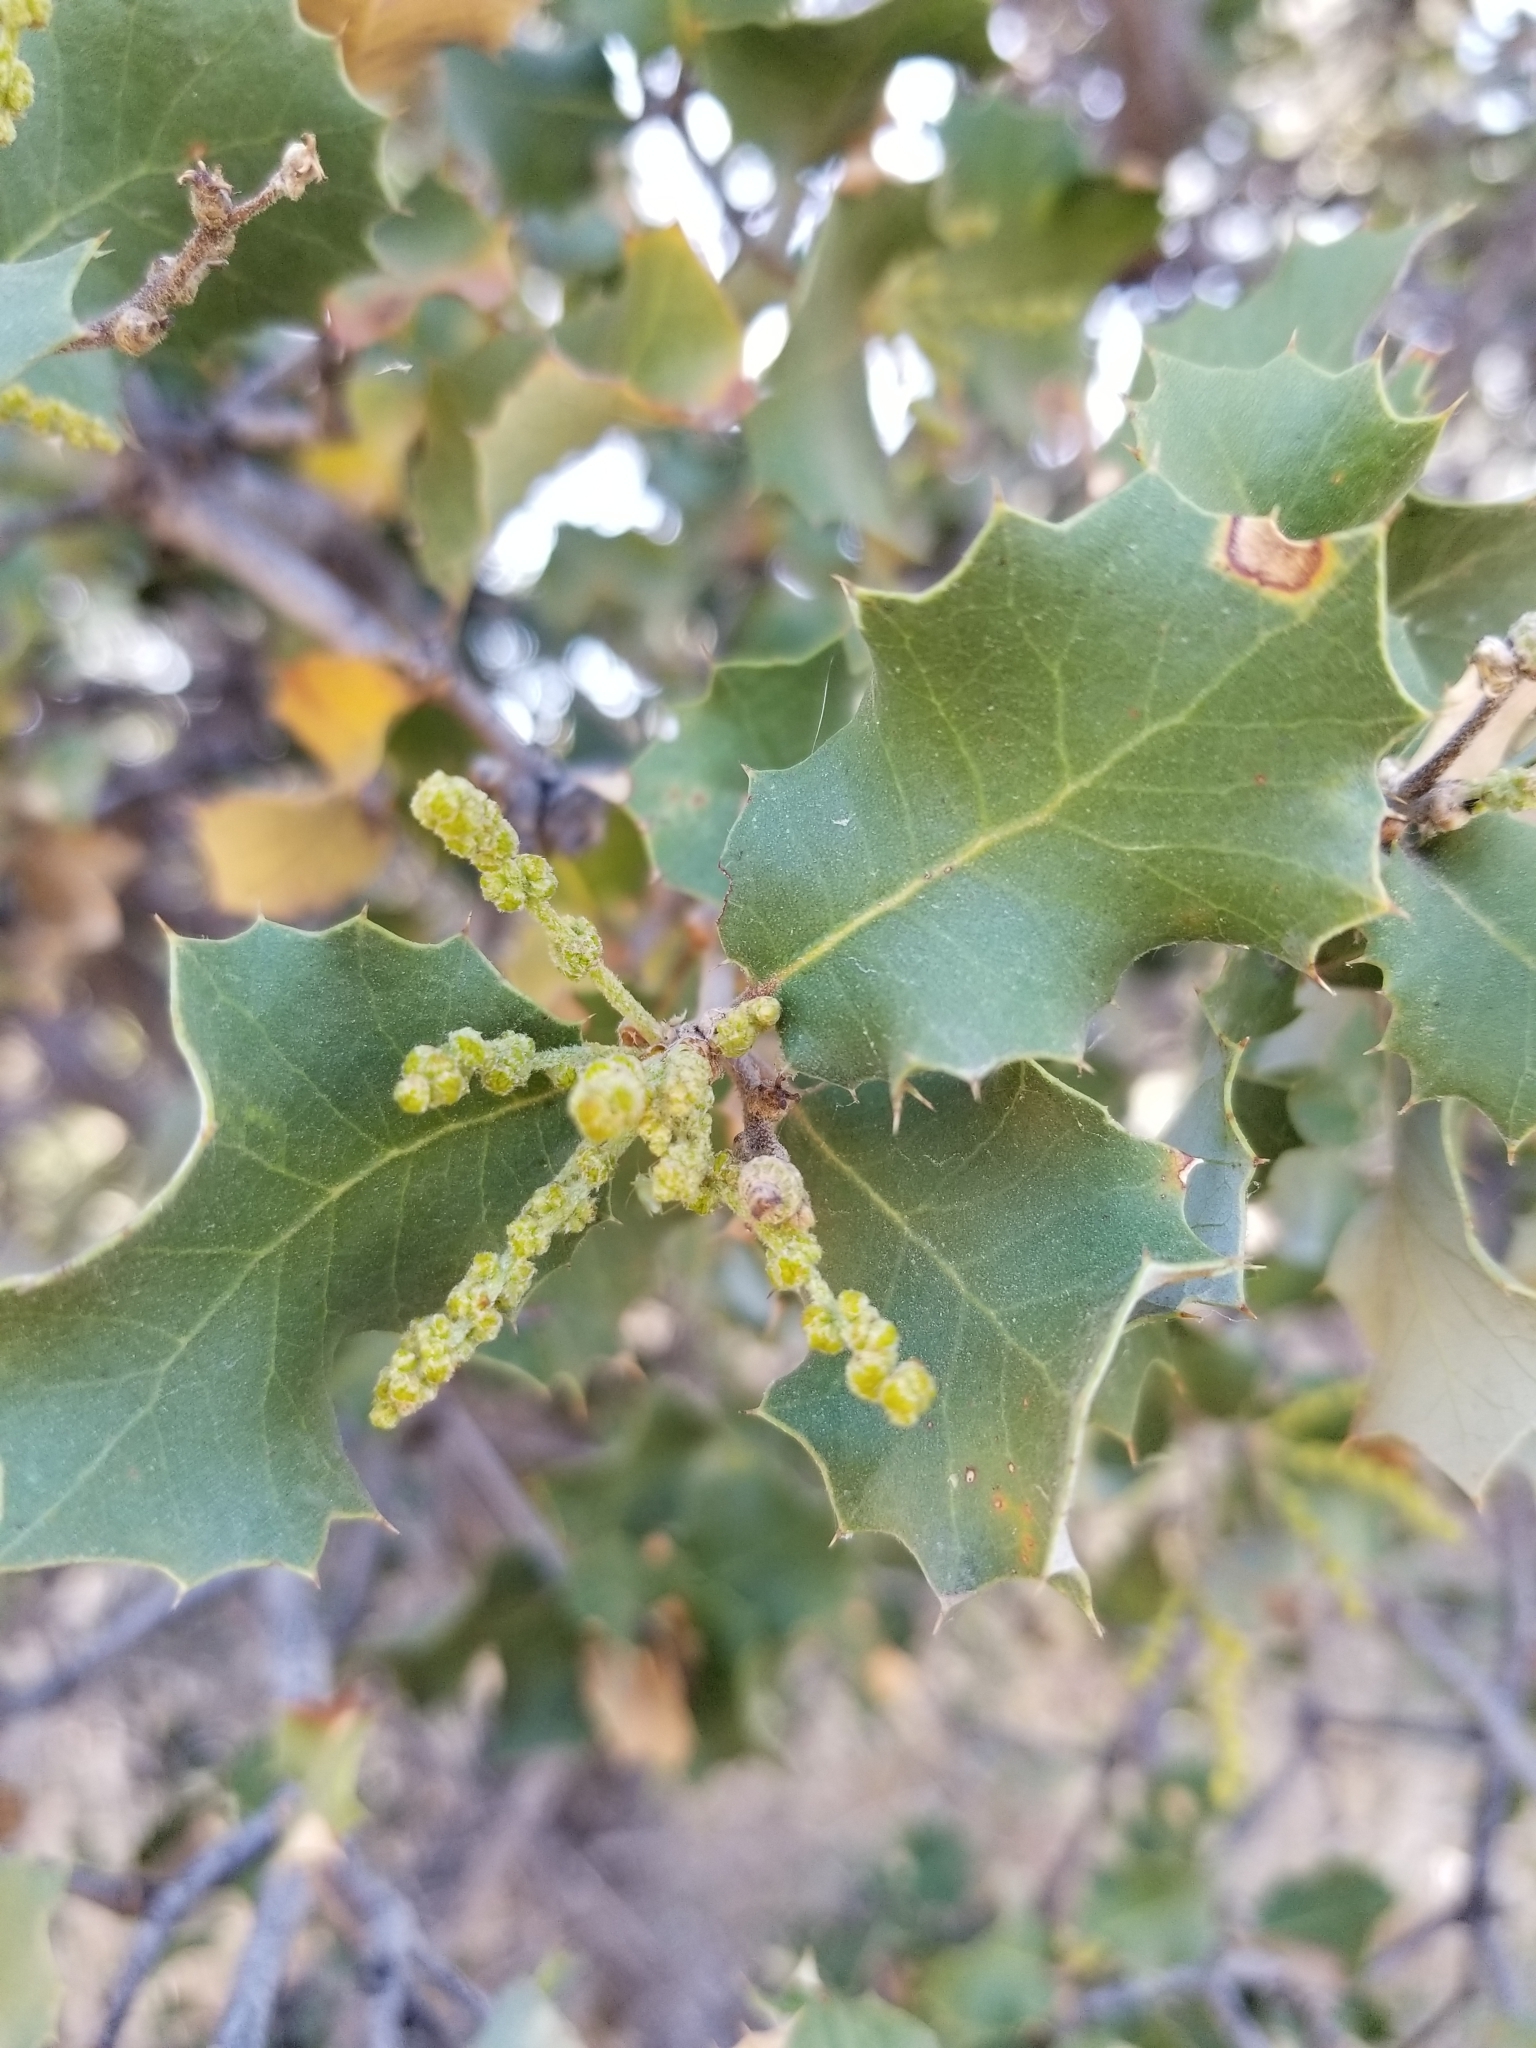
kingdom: Plantae
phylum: Tracheophyta
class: Magnoliopsida
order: Fagales
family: Fagaceae
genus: Quercus
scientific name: Quercus cornelius-mulleri
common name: Muller oak
